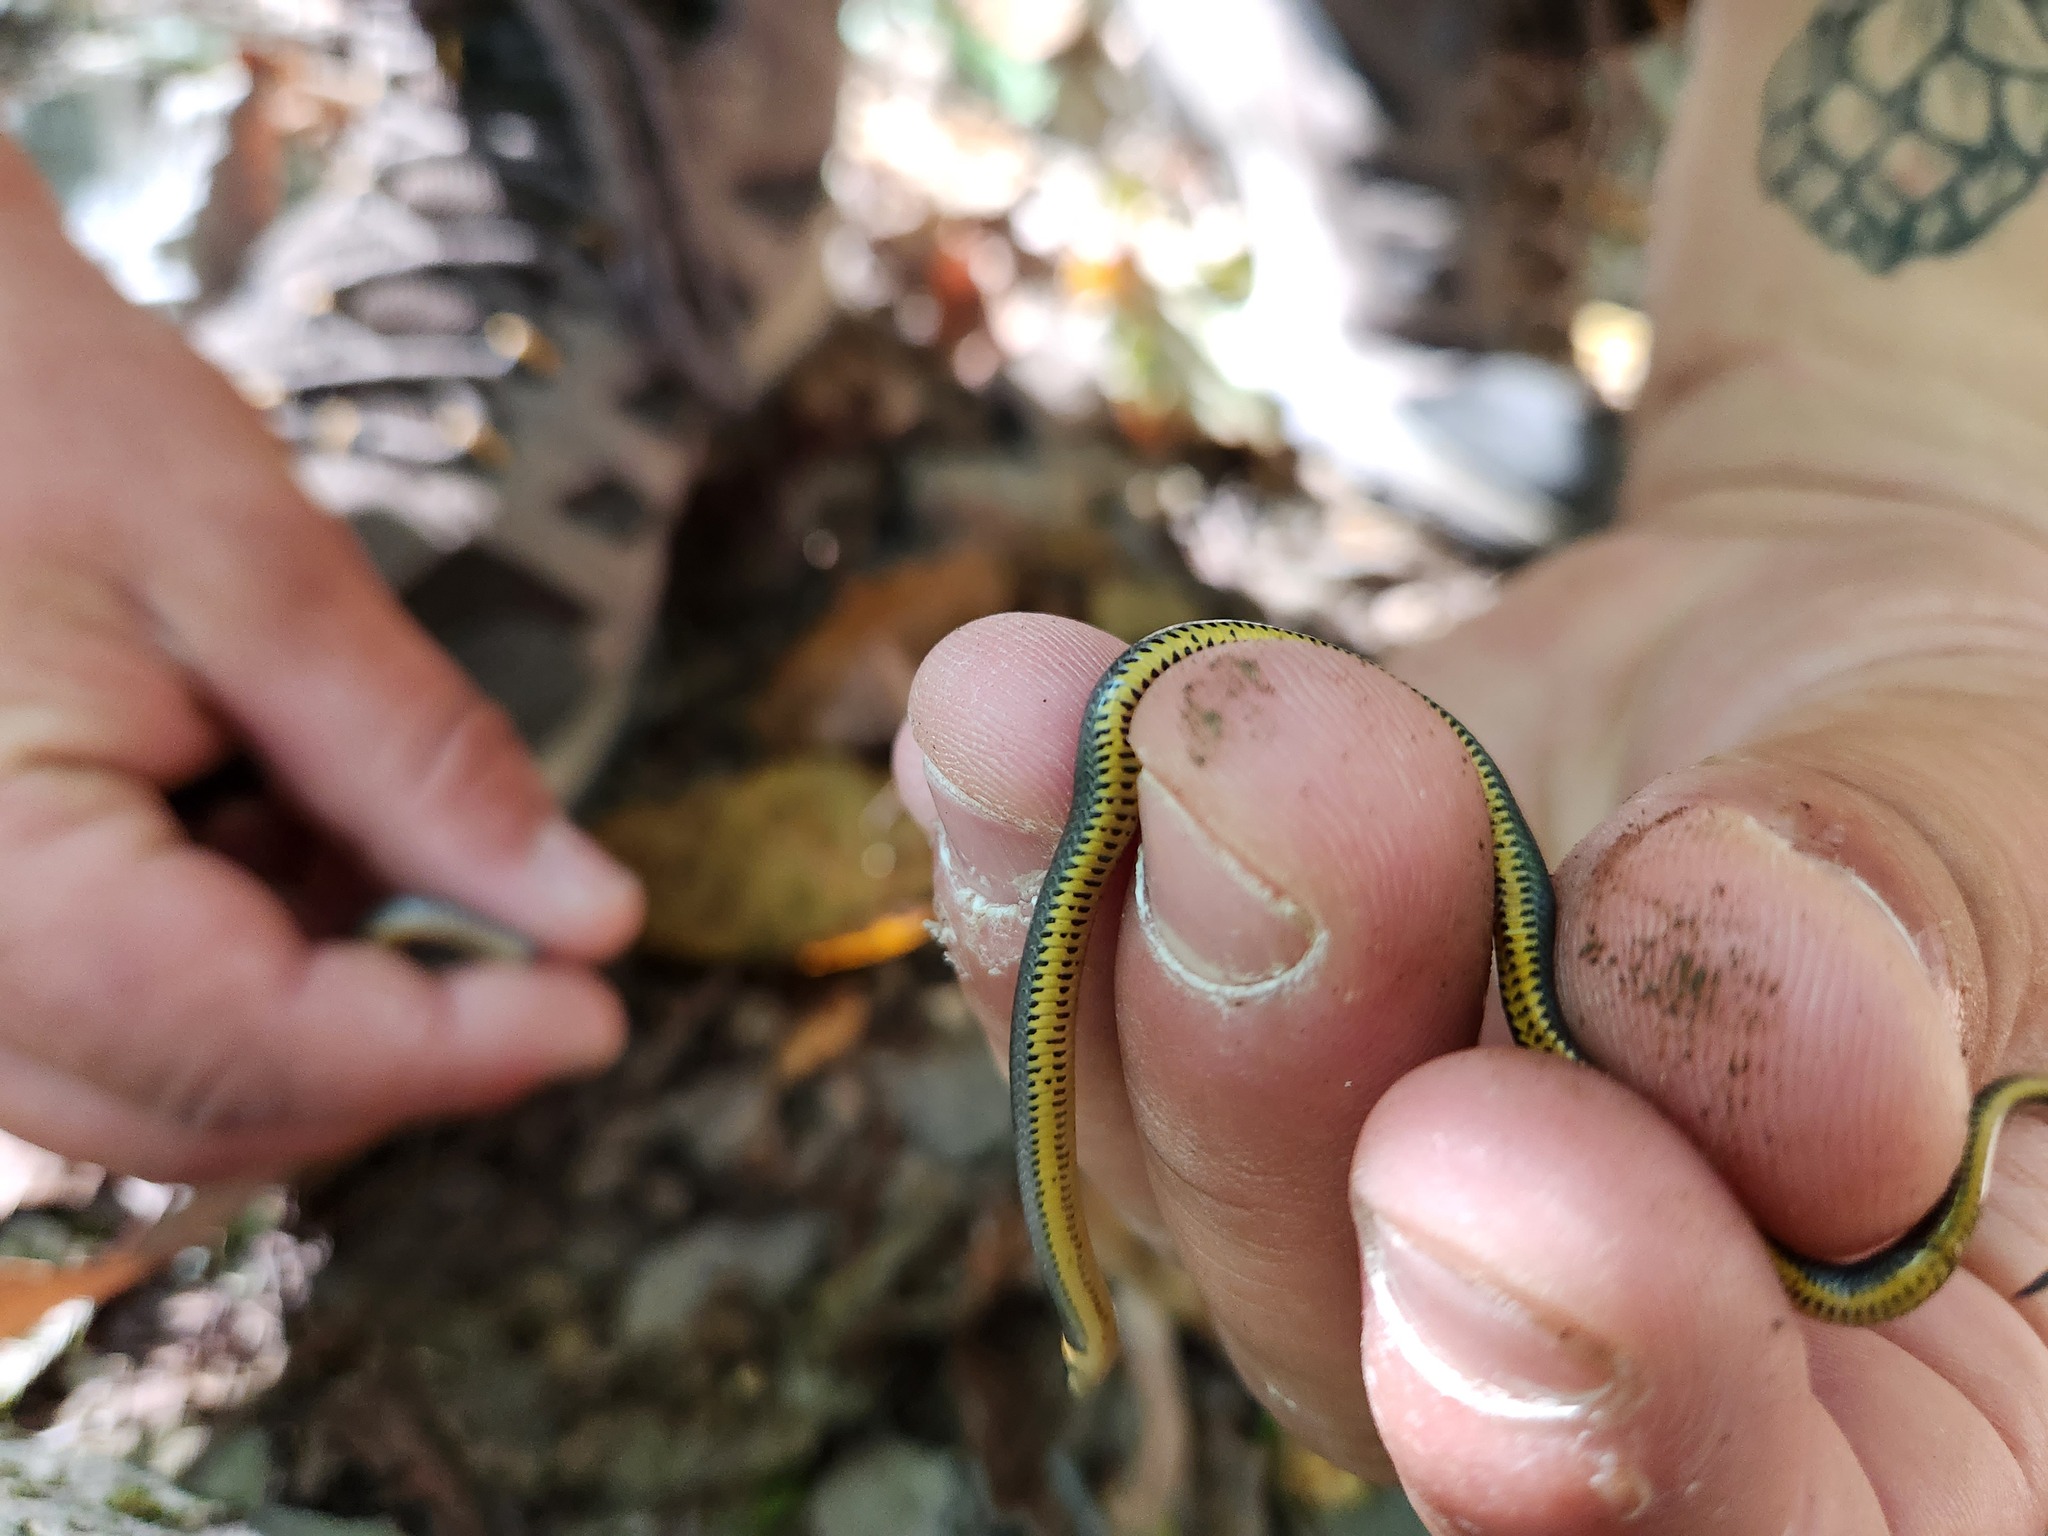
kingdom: Animalia
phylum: Chordata
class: Squamata
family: Colubridae
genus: Diadophis
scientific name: Diadophis punctatus
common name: Ringneck snake
